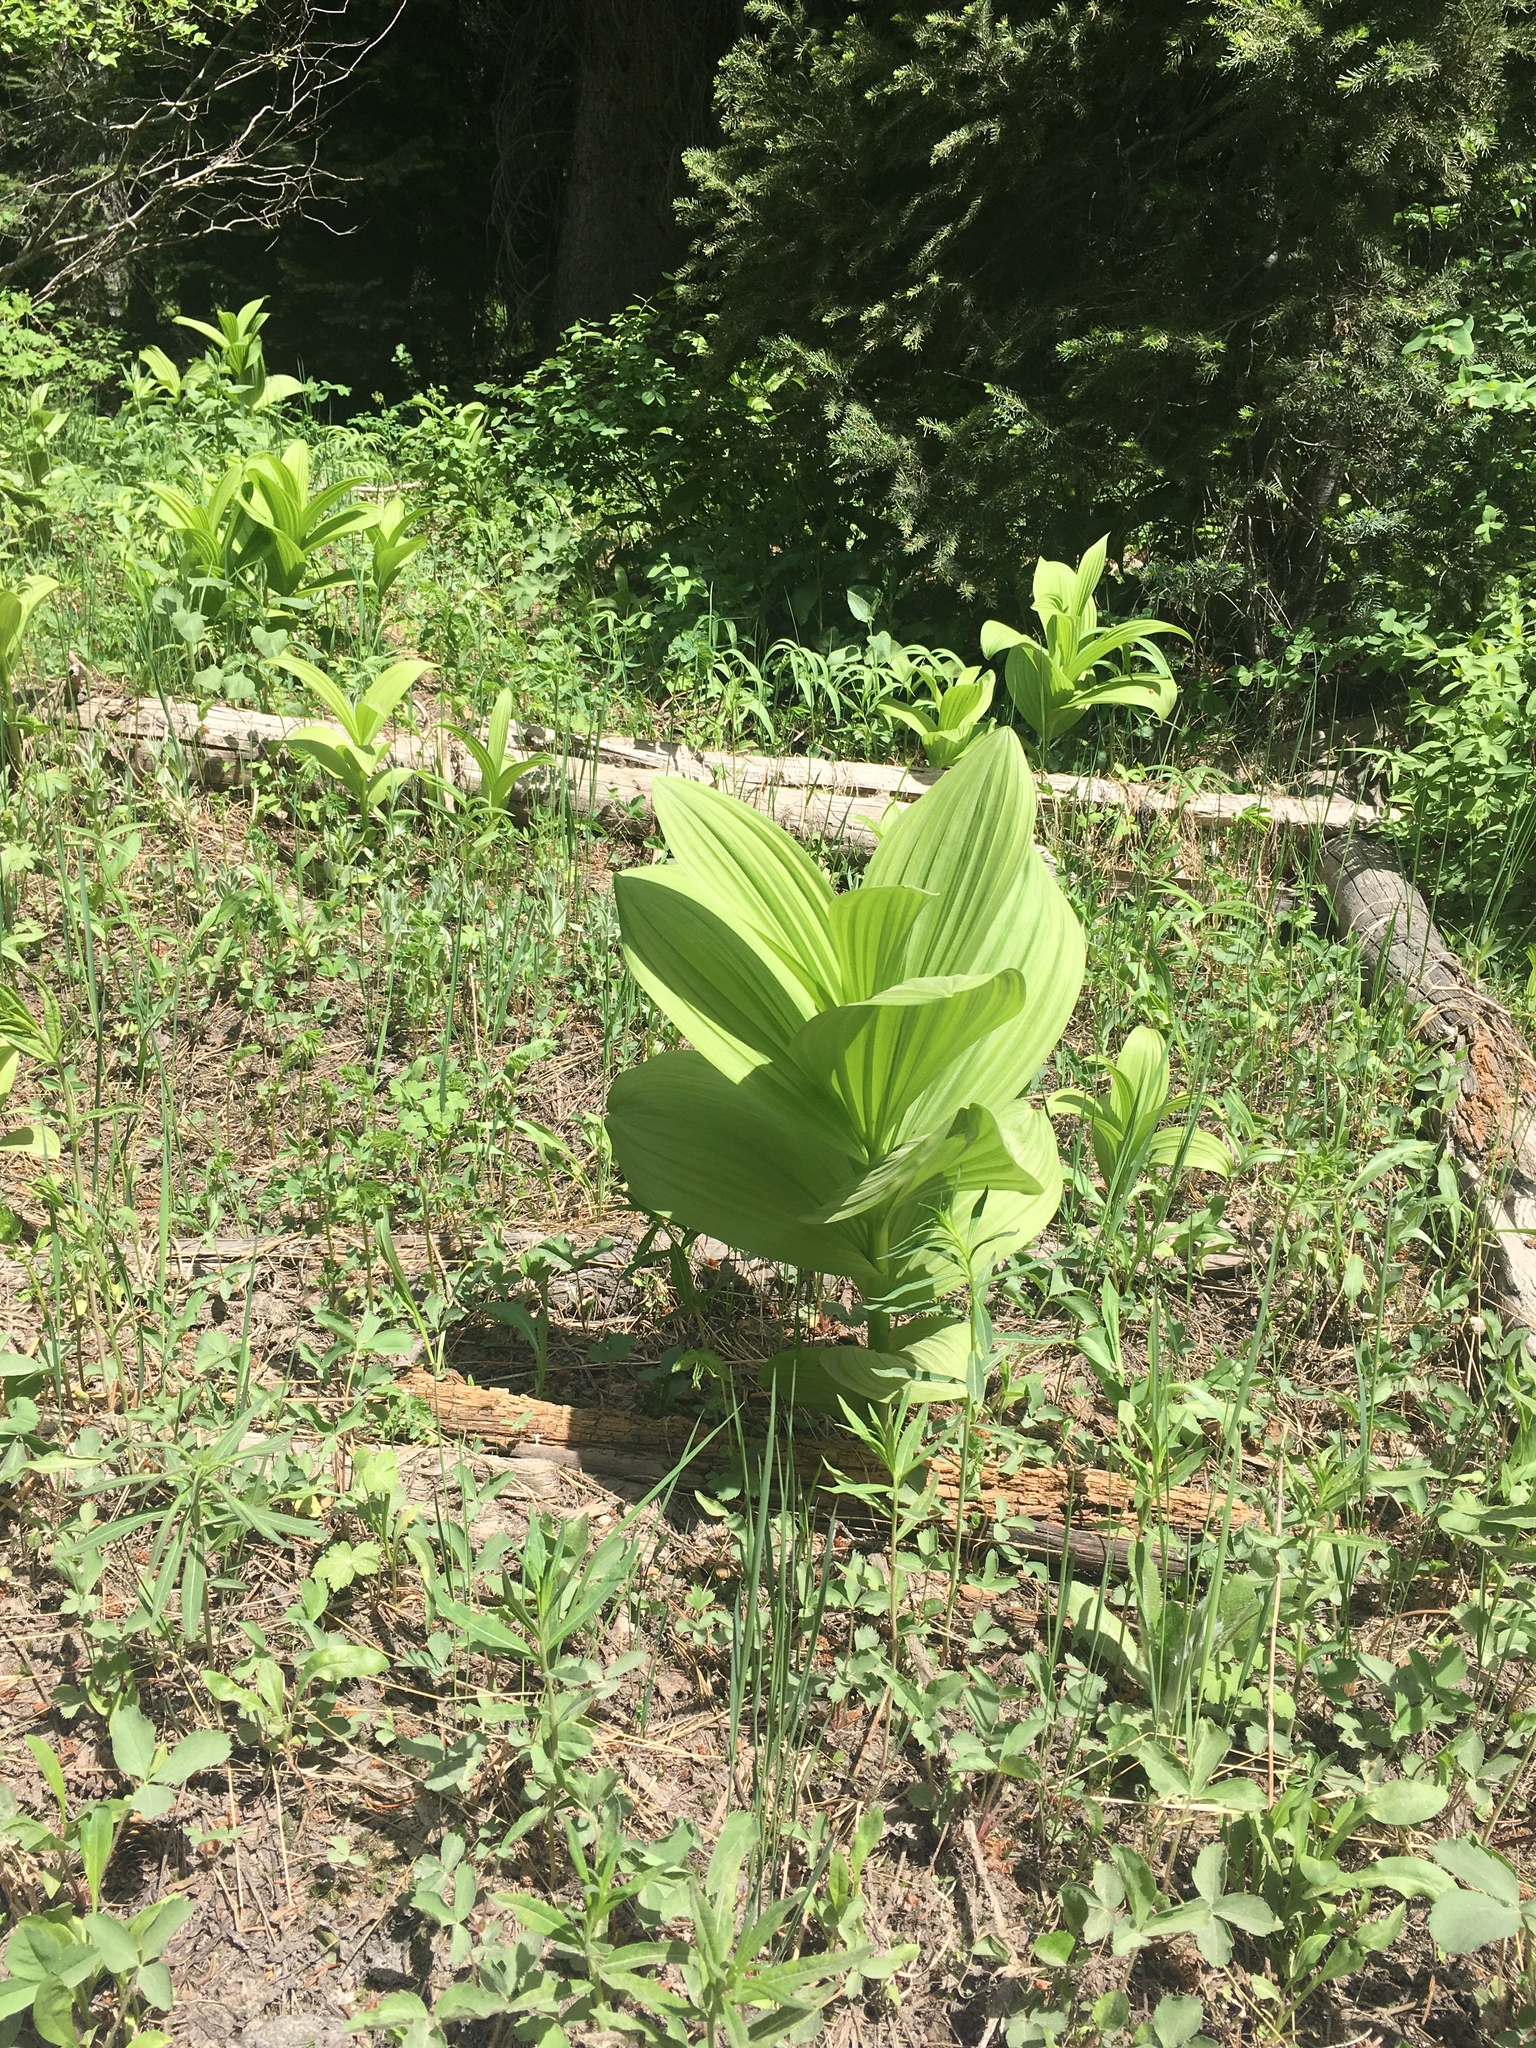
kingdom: Plantae
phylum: Tracheophyta
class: Liliopsida
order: Liliales
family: Melanthiaceae
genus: Veratrum
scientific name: Veratrum viride
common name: American false hellebore
